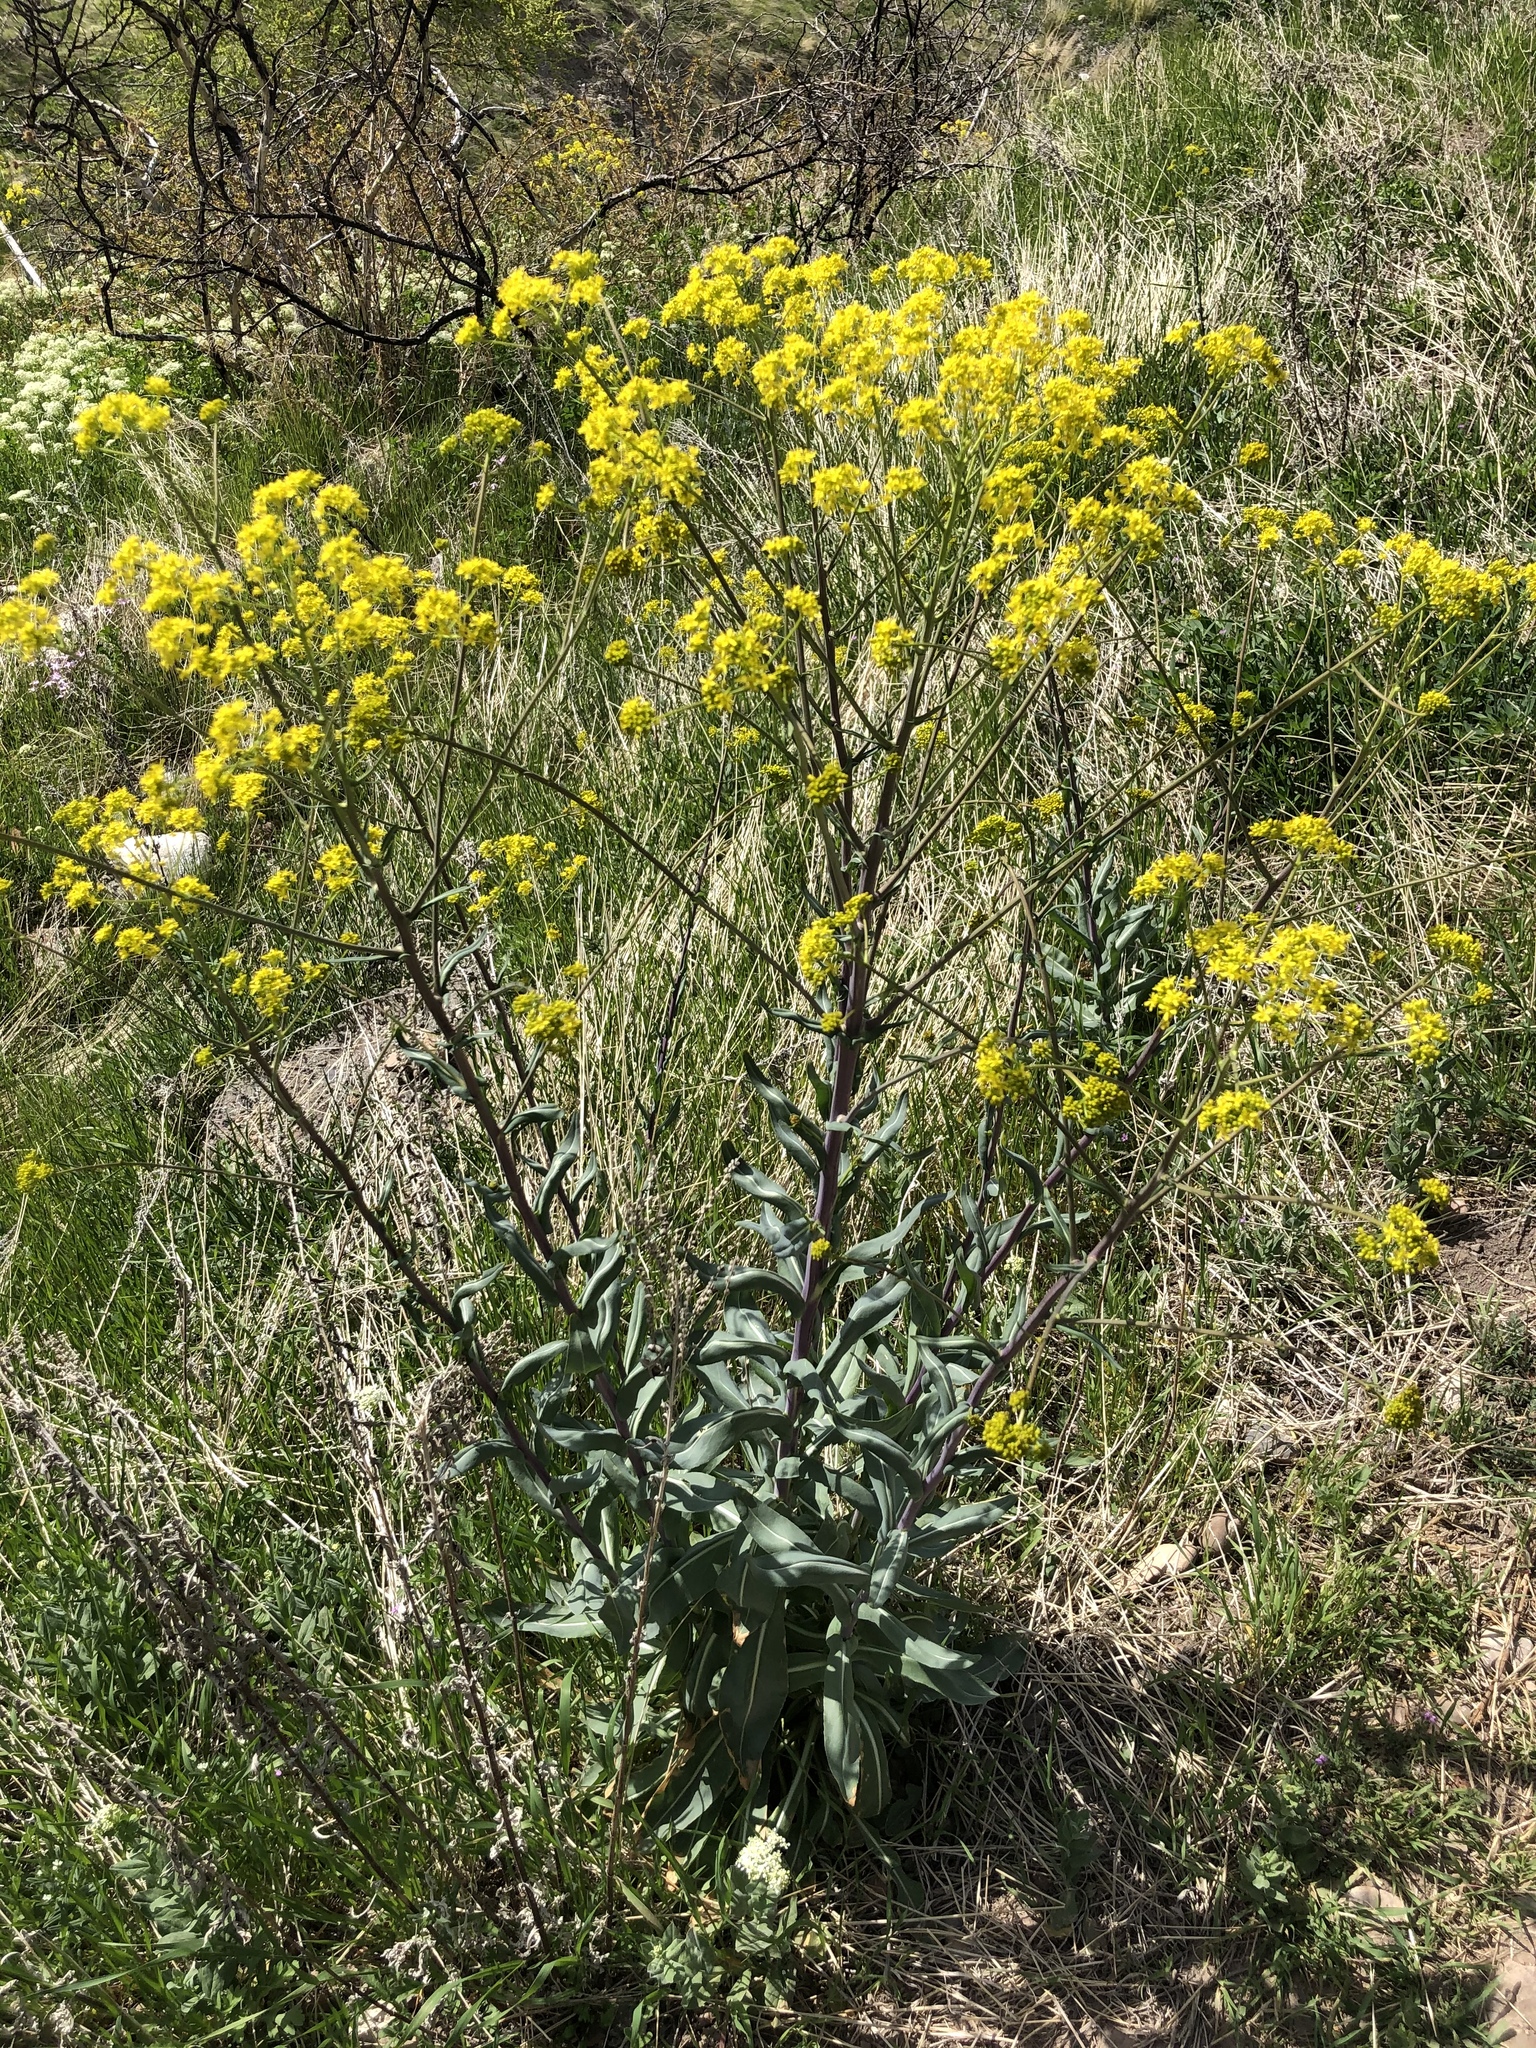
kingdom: Plantae
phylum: Tracheophyta
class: Magnoliopsida
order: Brassicales
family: Brassicaceae
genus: Isatis
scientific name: Isatis tinctoria
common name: Woad
